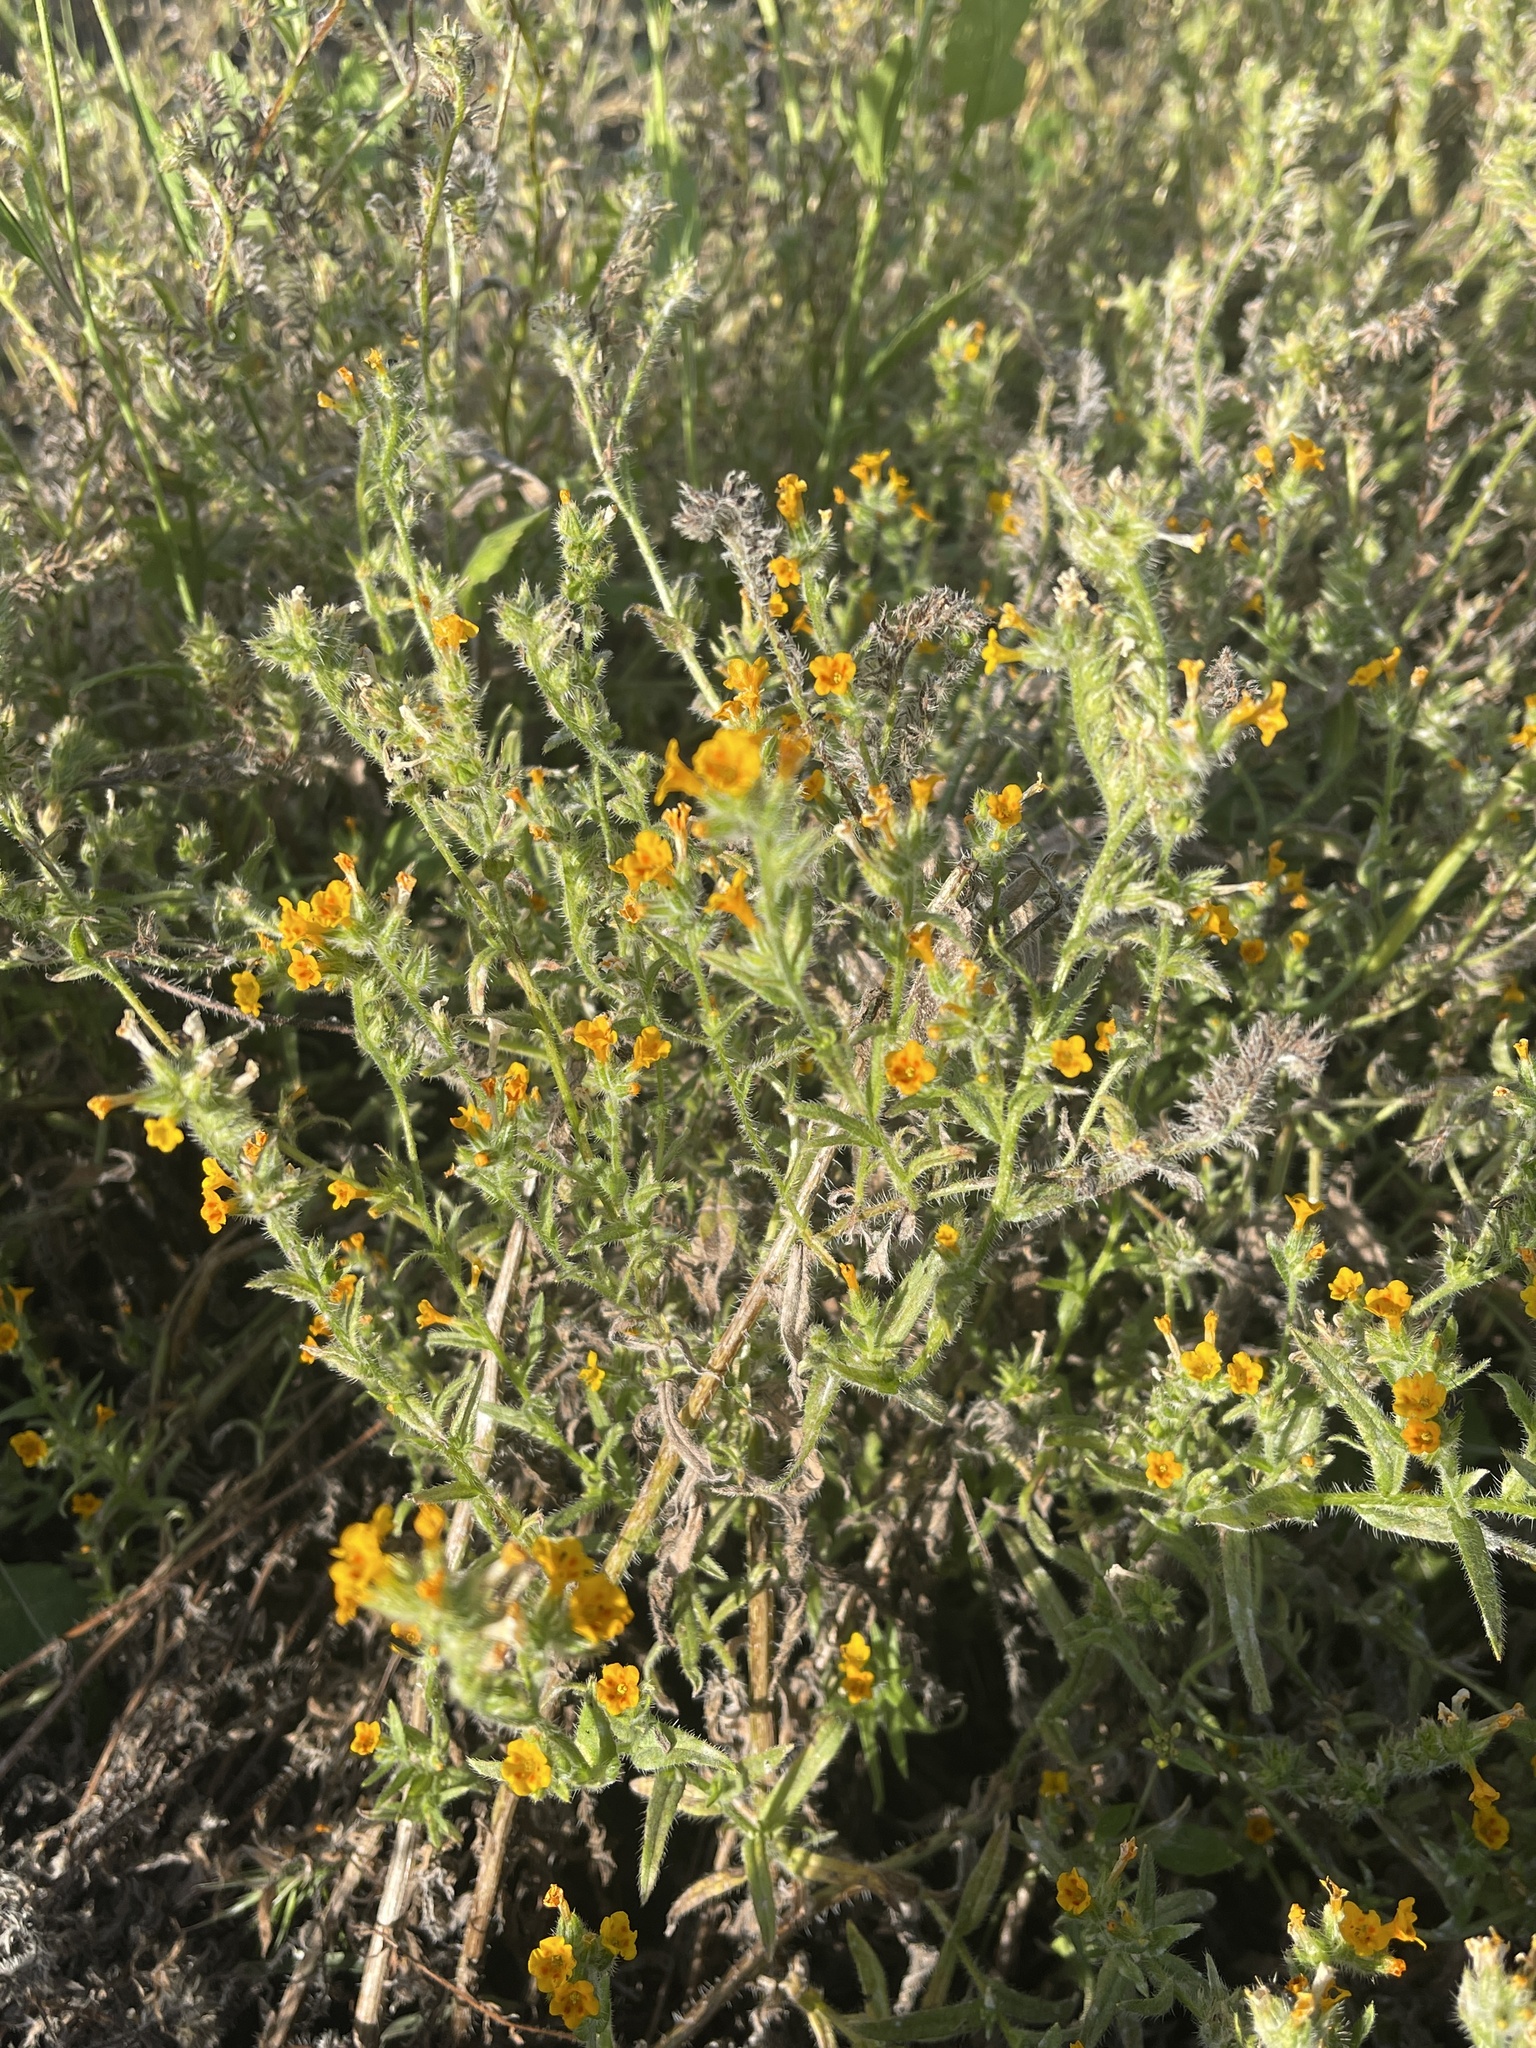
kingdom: Plantae
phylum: Tracheophyta
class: Magnoliopsida
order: Boraginales
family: Boraginaceae
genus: Amsinckia
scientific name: Amsinckia menziesii
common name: Menzies' fiddleneck
